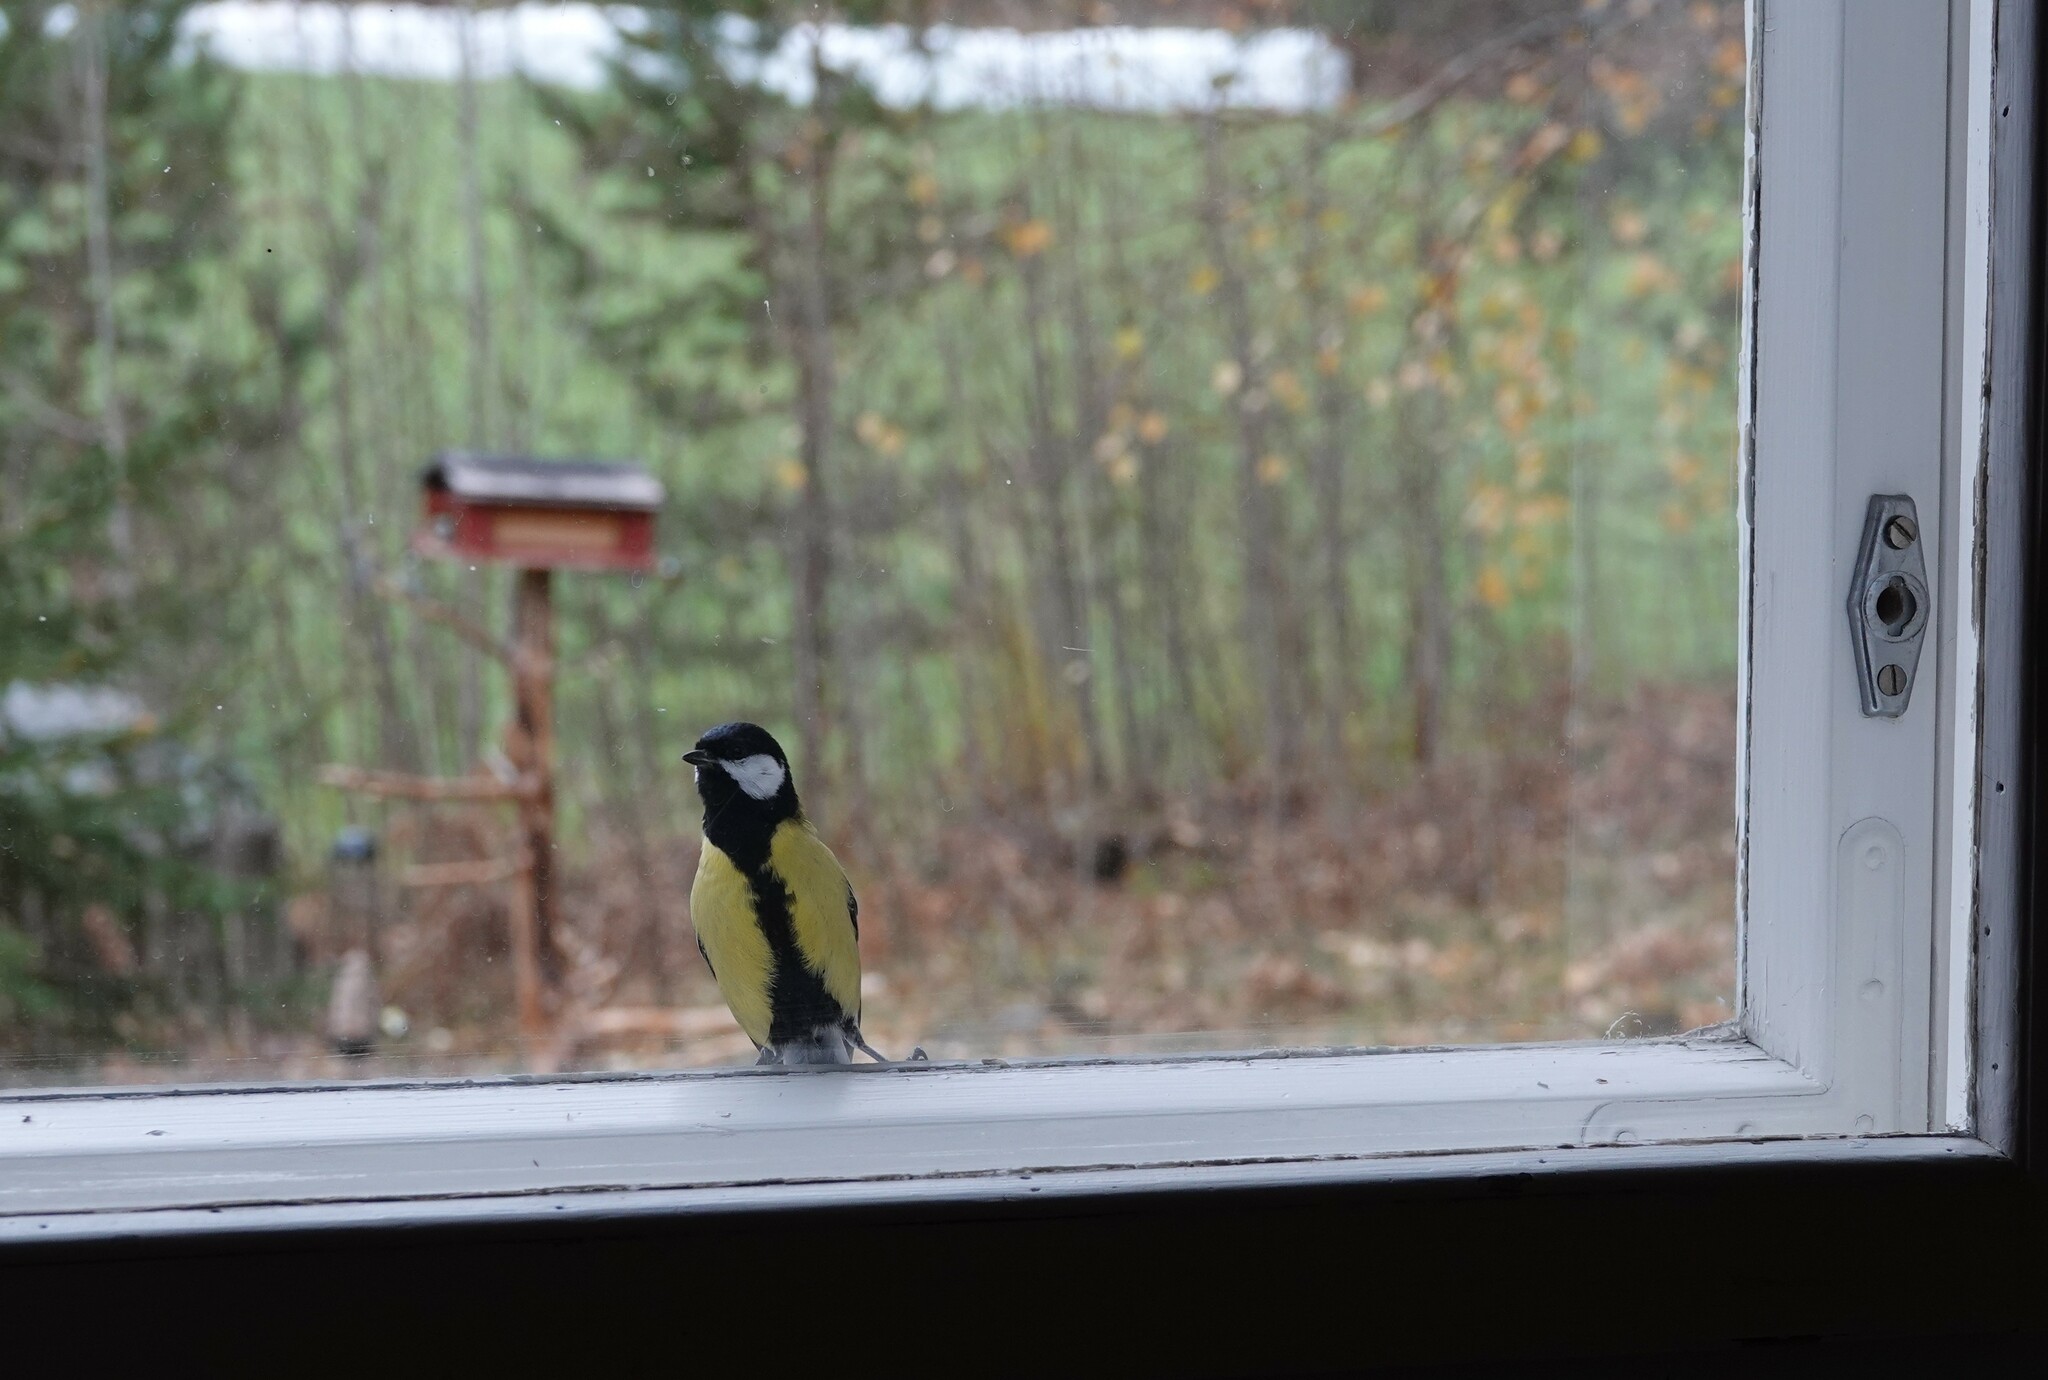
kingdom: Animalia
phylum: Chordata
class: Aves
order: Passeriformes
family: Paridae
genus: Parus
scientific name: Parus major
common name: Great tit
